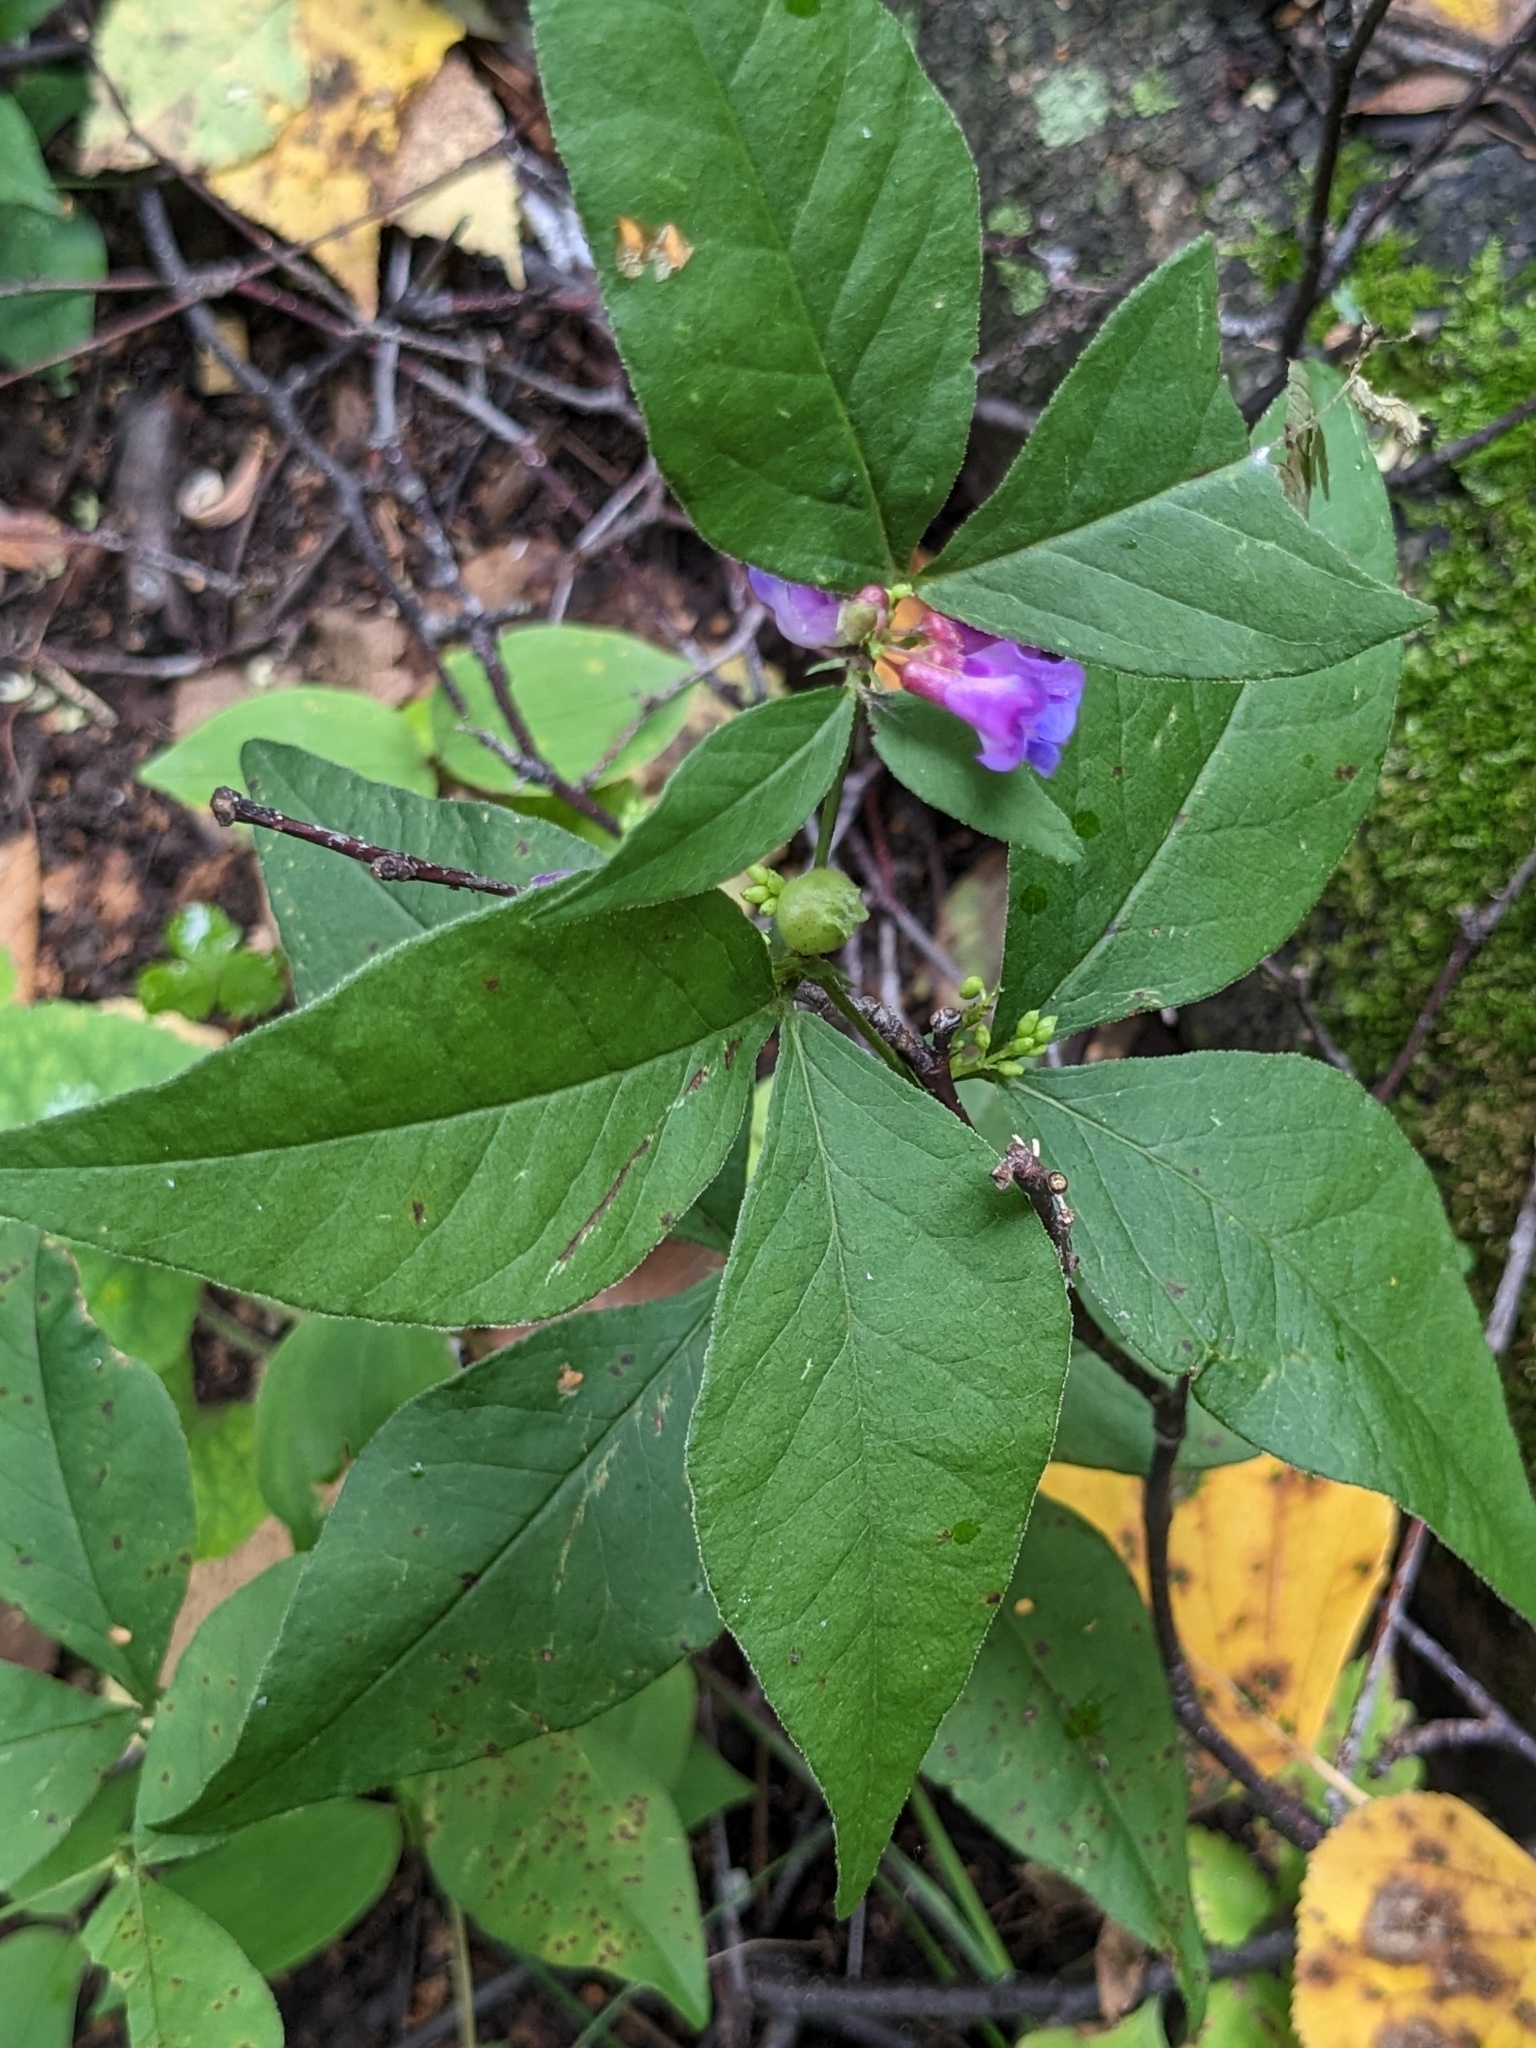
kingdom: Plantae
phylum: Tracheophyta
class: Magnoliopsida
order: Fabales
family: Fabaceae
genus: Vicia
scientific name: Vicia unijuga
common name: Two-leaf vetch
